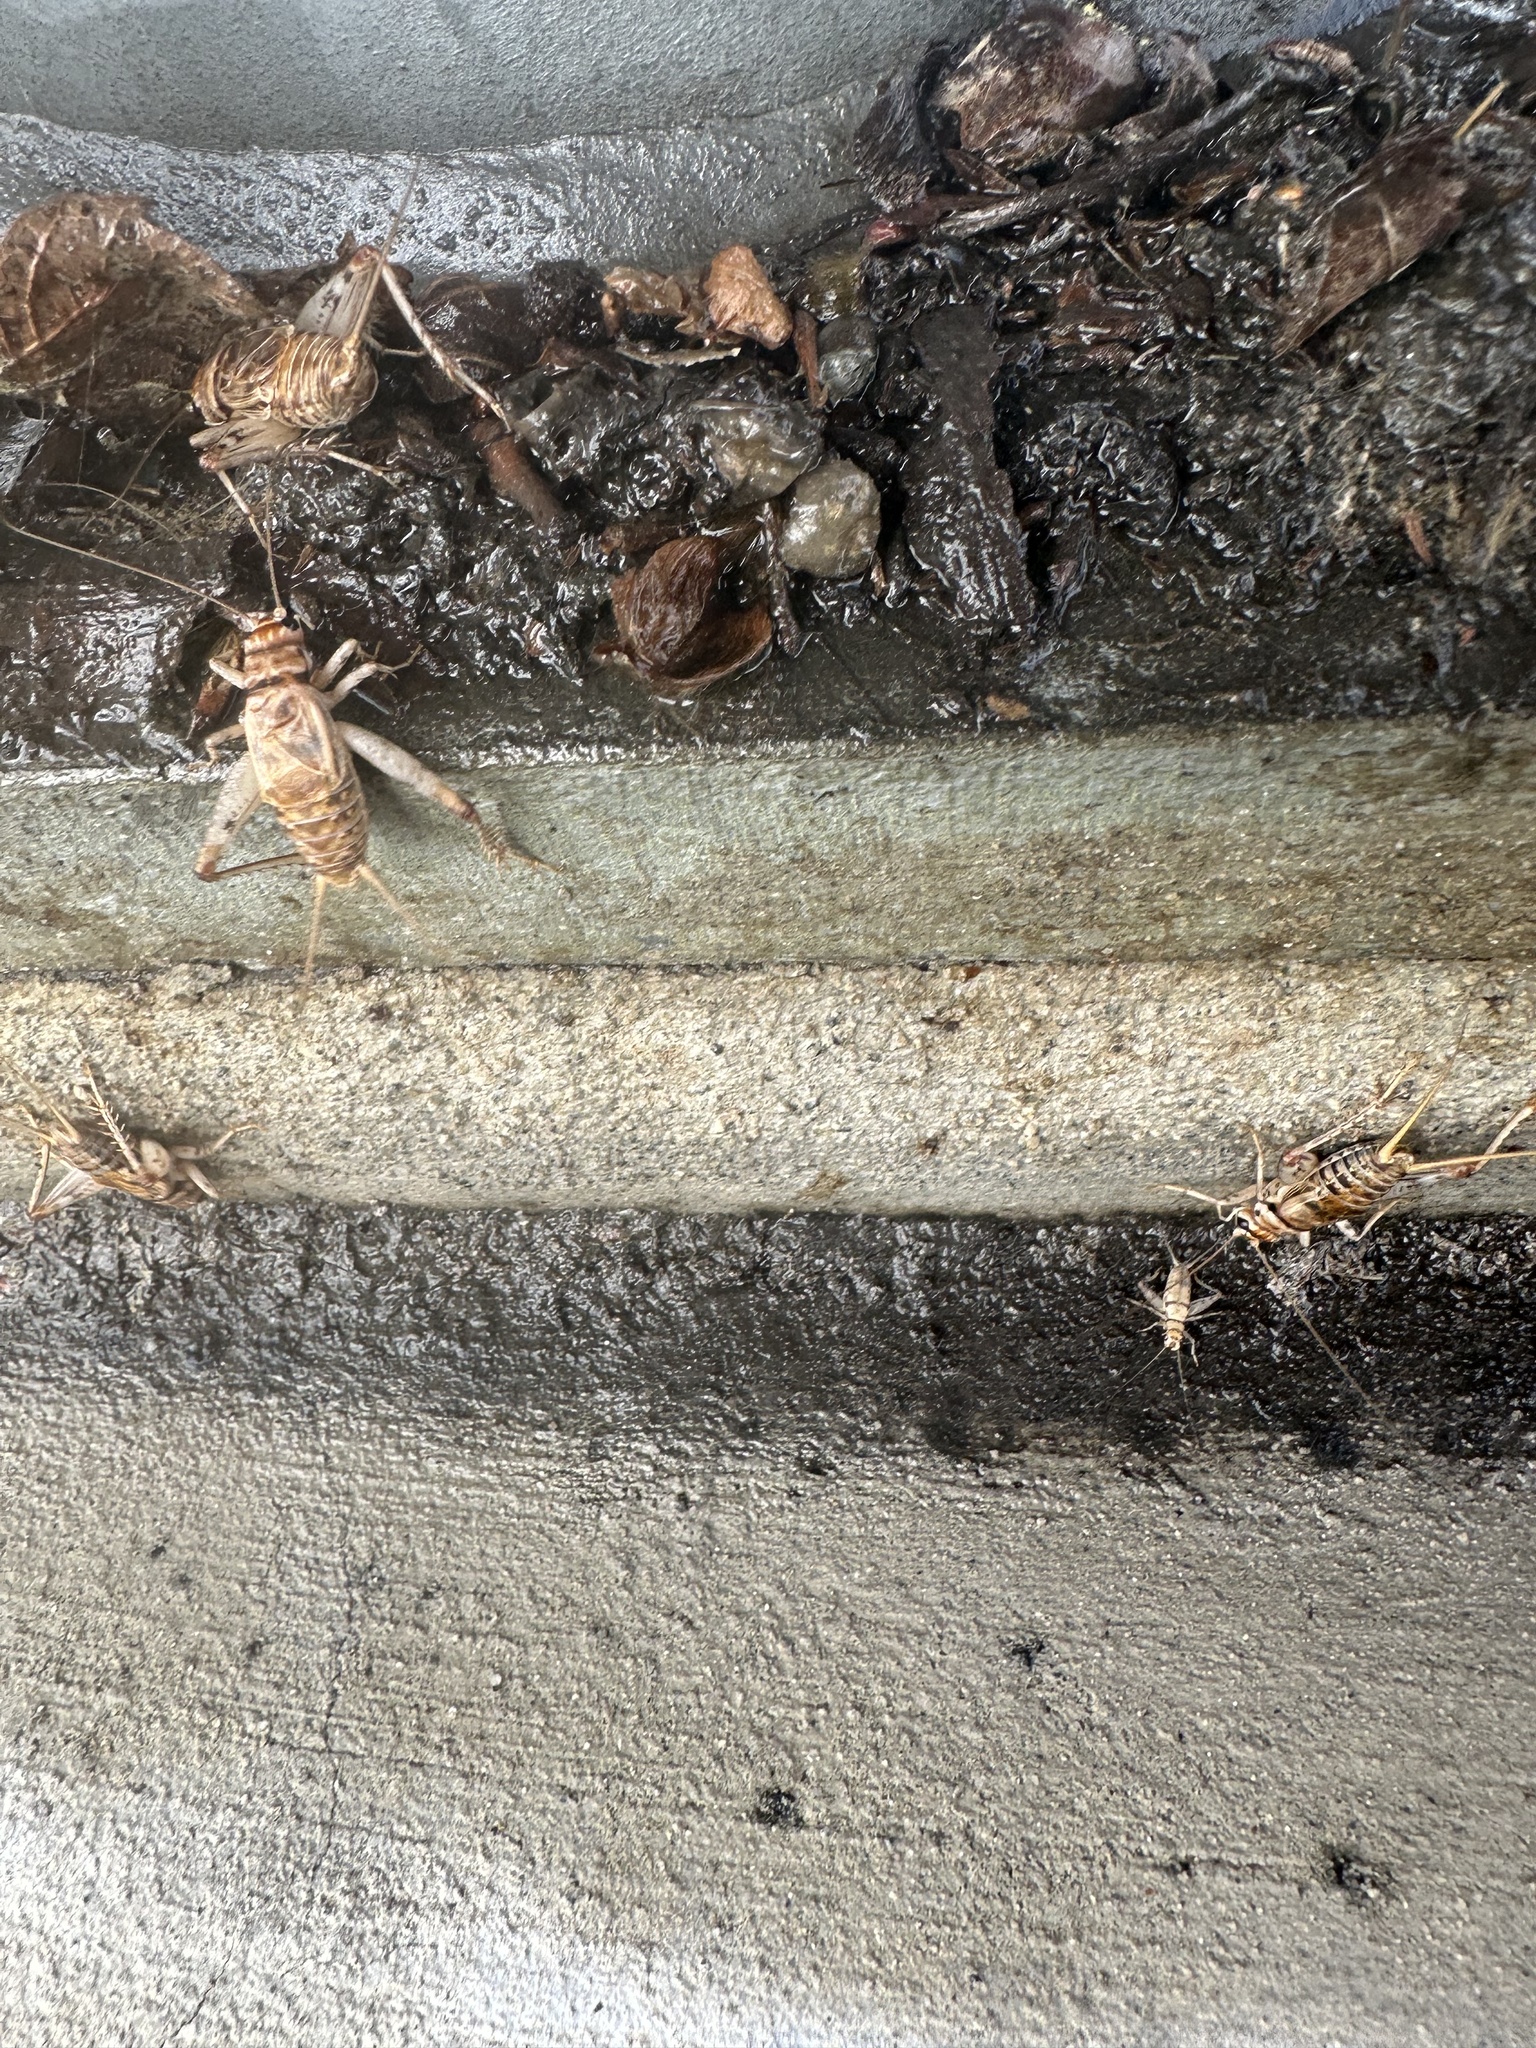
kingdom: Animalia
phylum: Arthropoda
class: Insecta
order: Orthoptera
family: Gryllidae
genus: Gryllodes
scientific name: Gryllodes sigillatus
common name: Tropical house cricket
